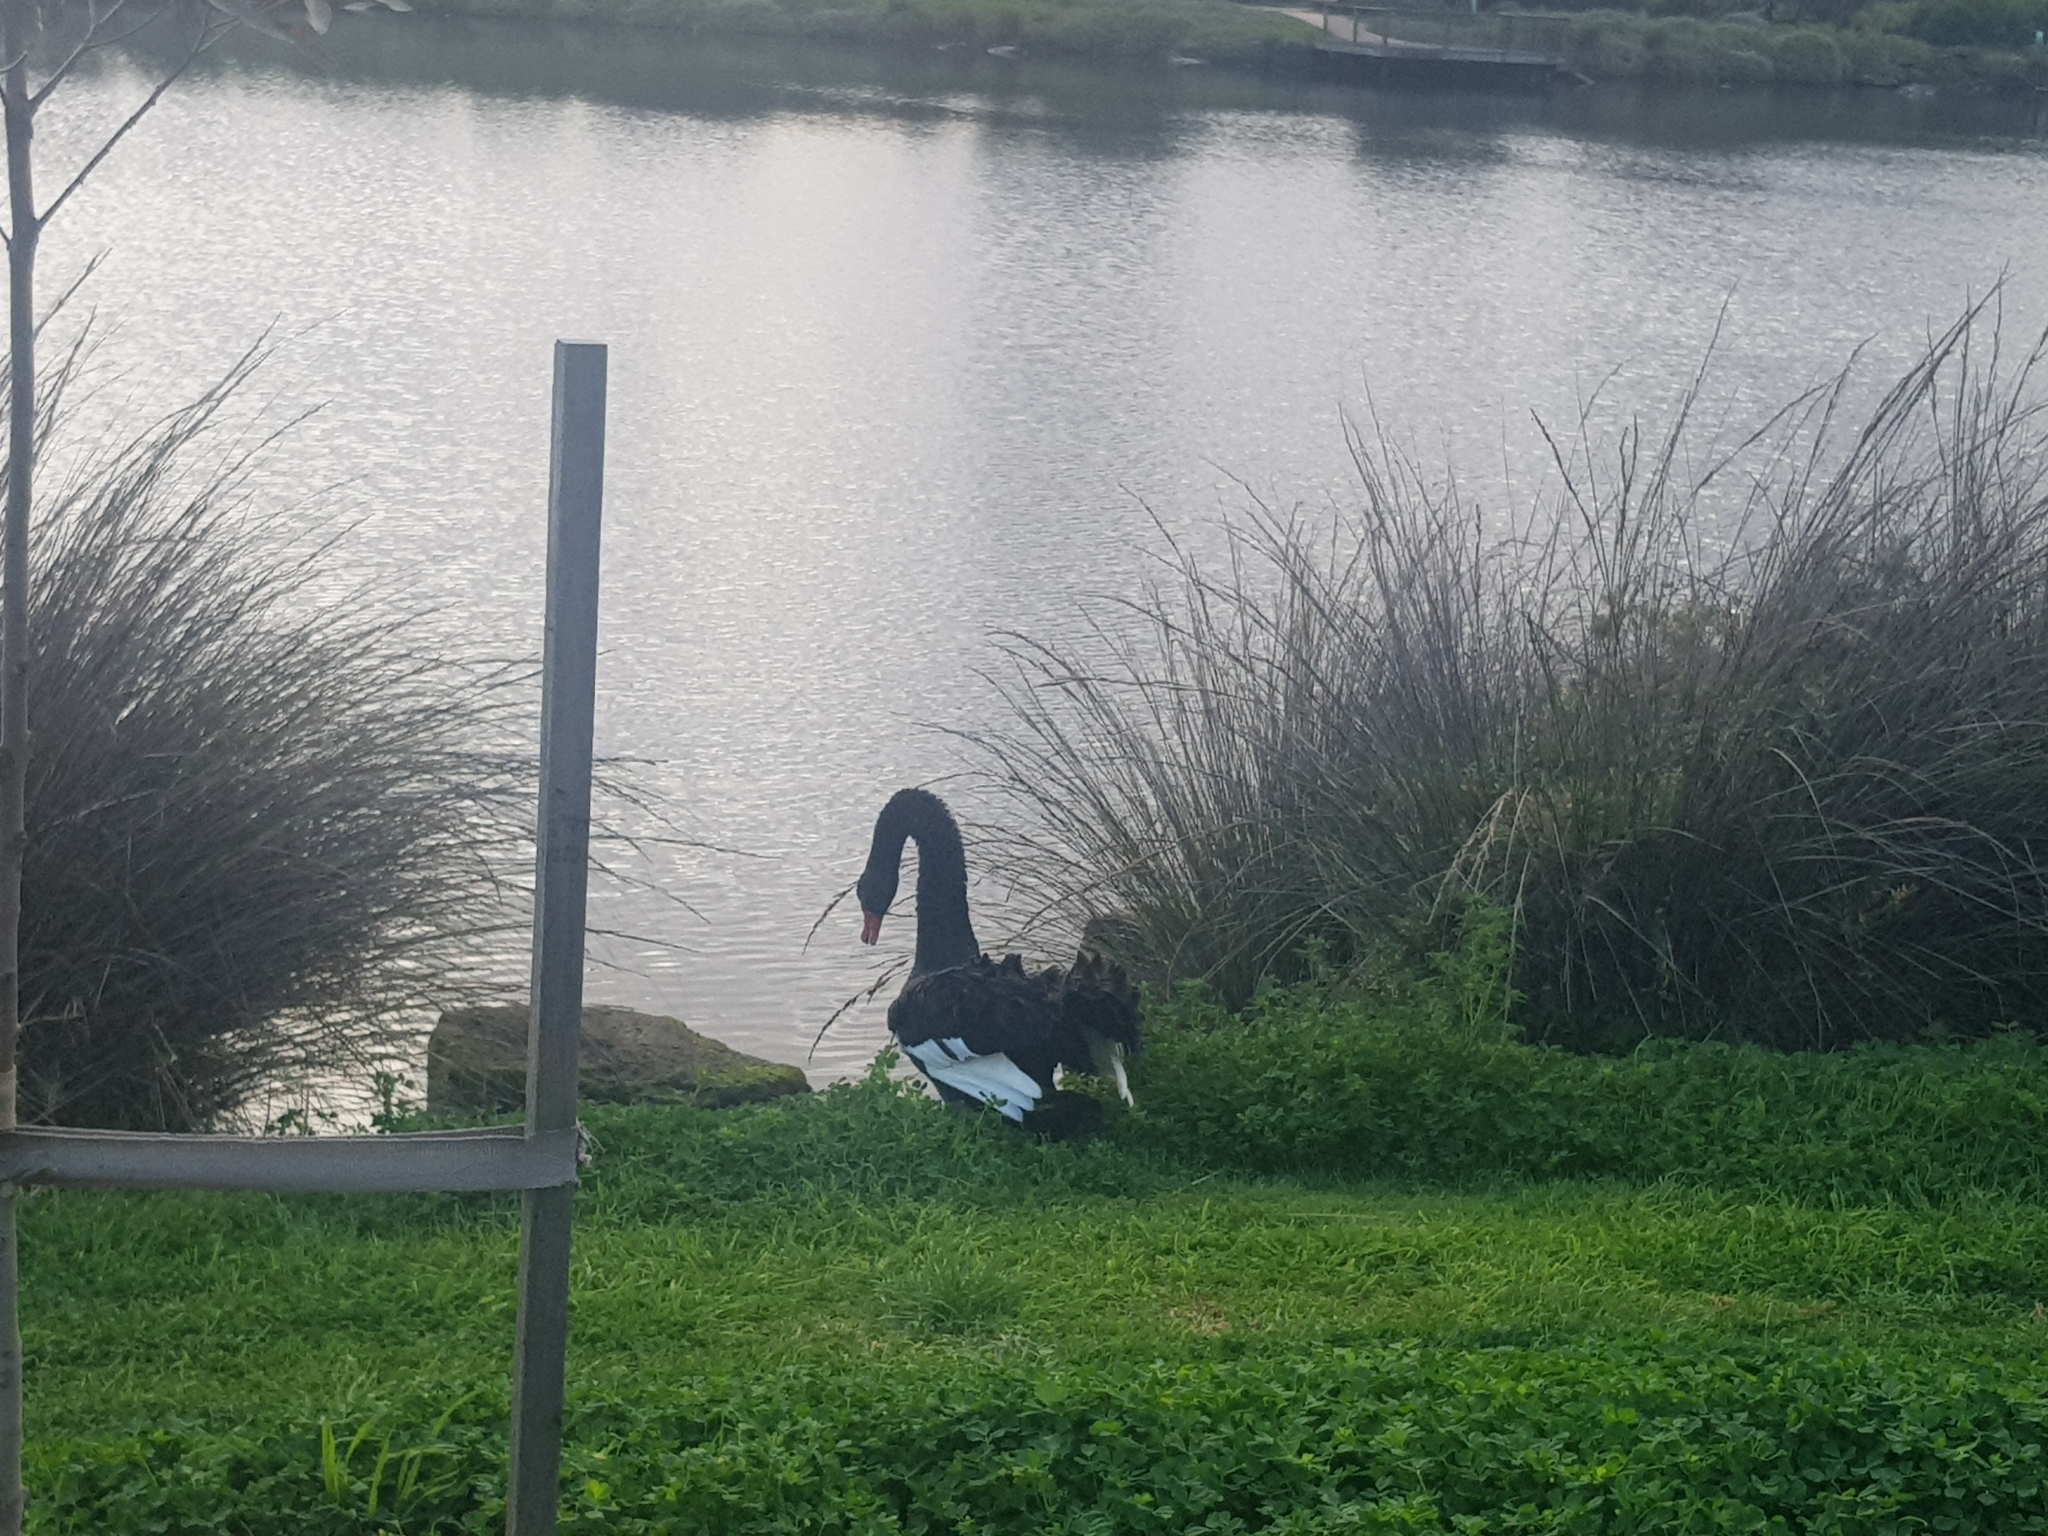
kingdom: Animalia
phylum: Chordata
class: Aves
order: Anseriformes
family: Anatidae
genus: Cygnus
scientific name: Cygnus atratus
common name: Black swan
